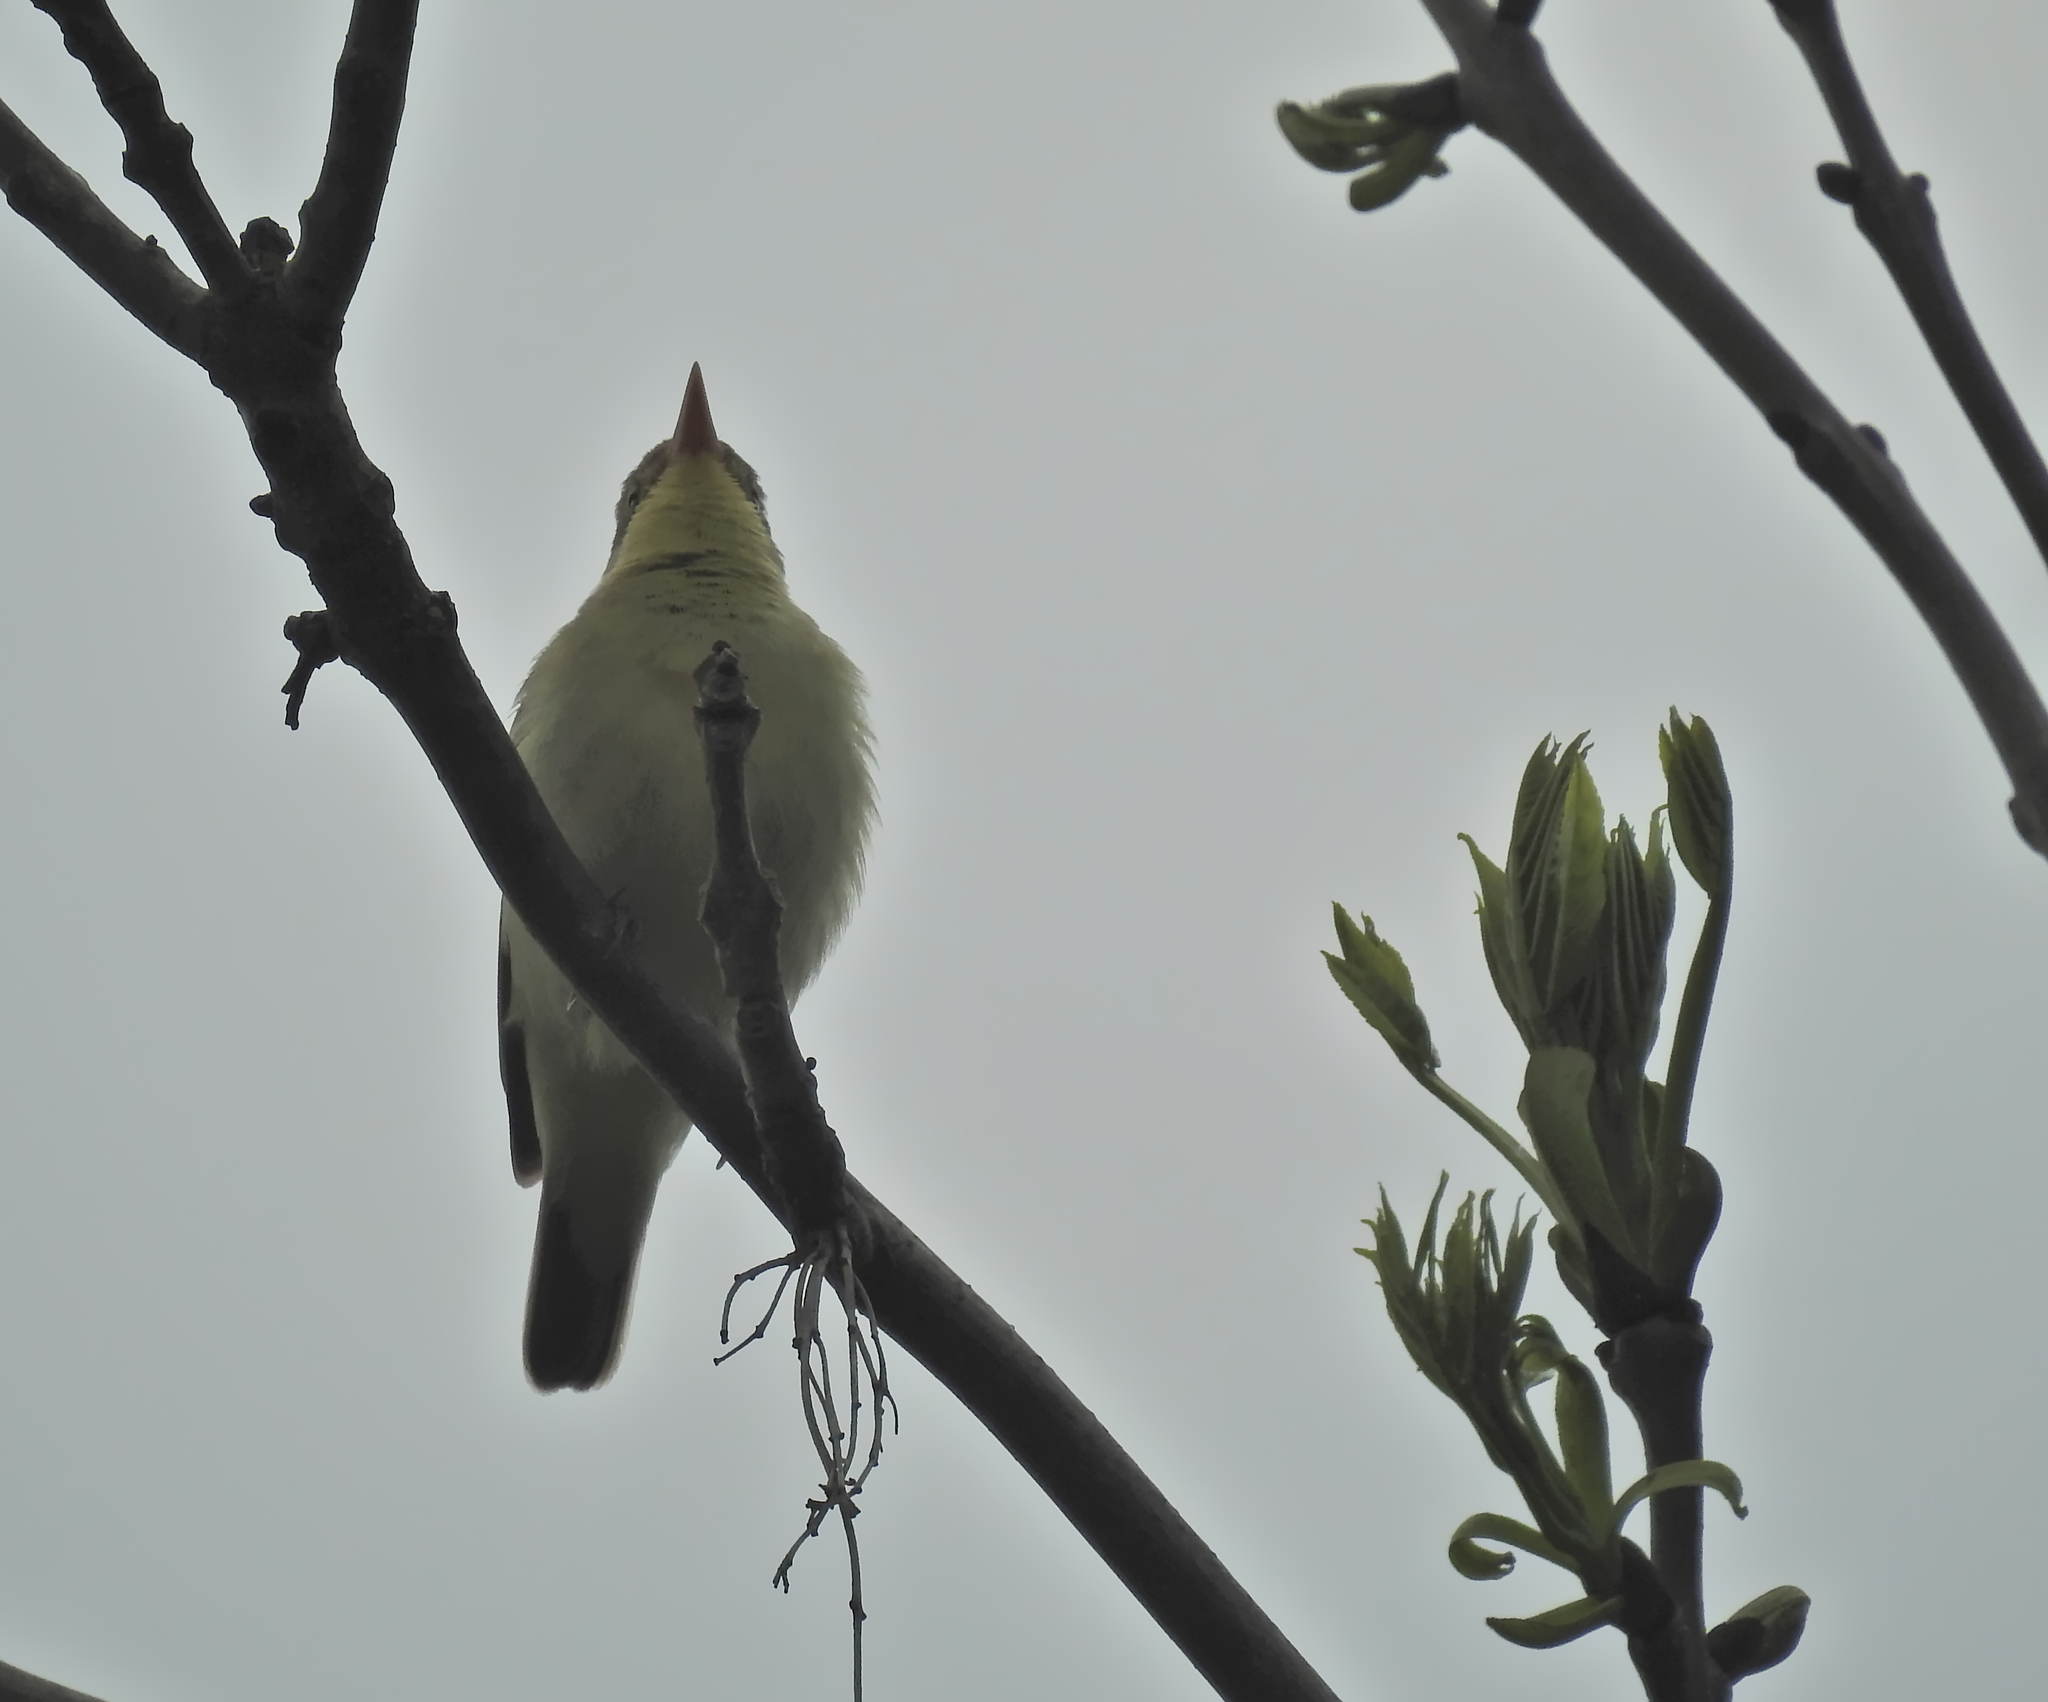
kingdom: Animalia
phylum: Chordata
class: Aves
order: Passeriformes
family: Acrocephalidae
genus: Hippolais
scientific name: Hippolais icterina
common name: Icterine warbler
